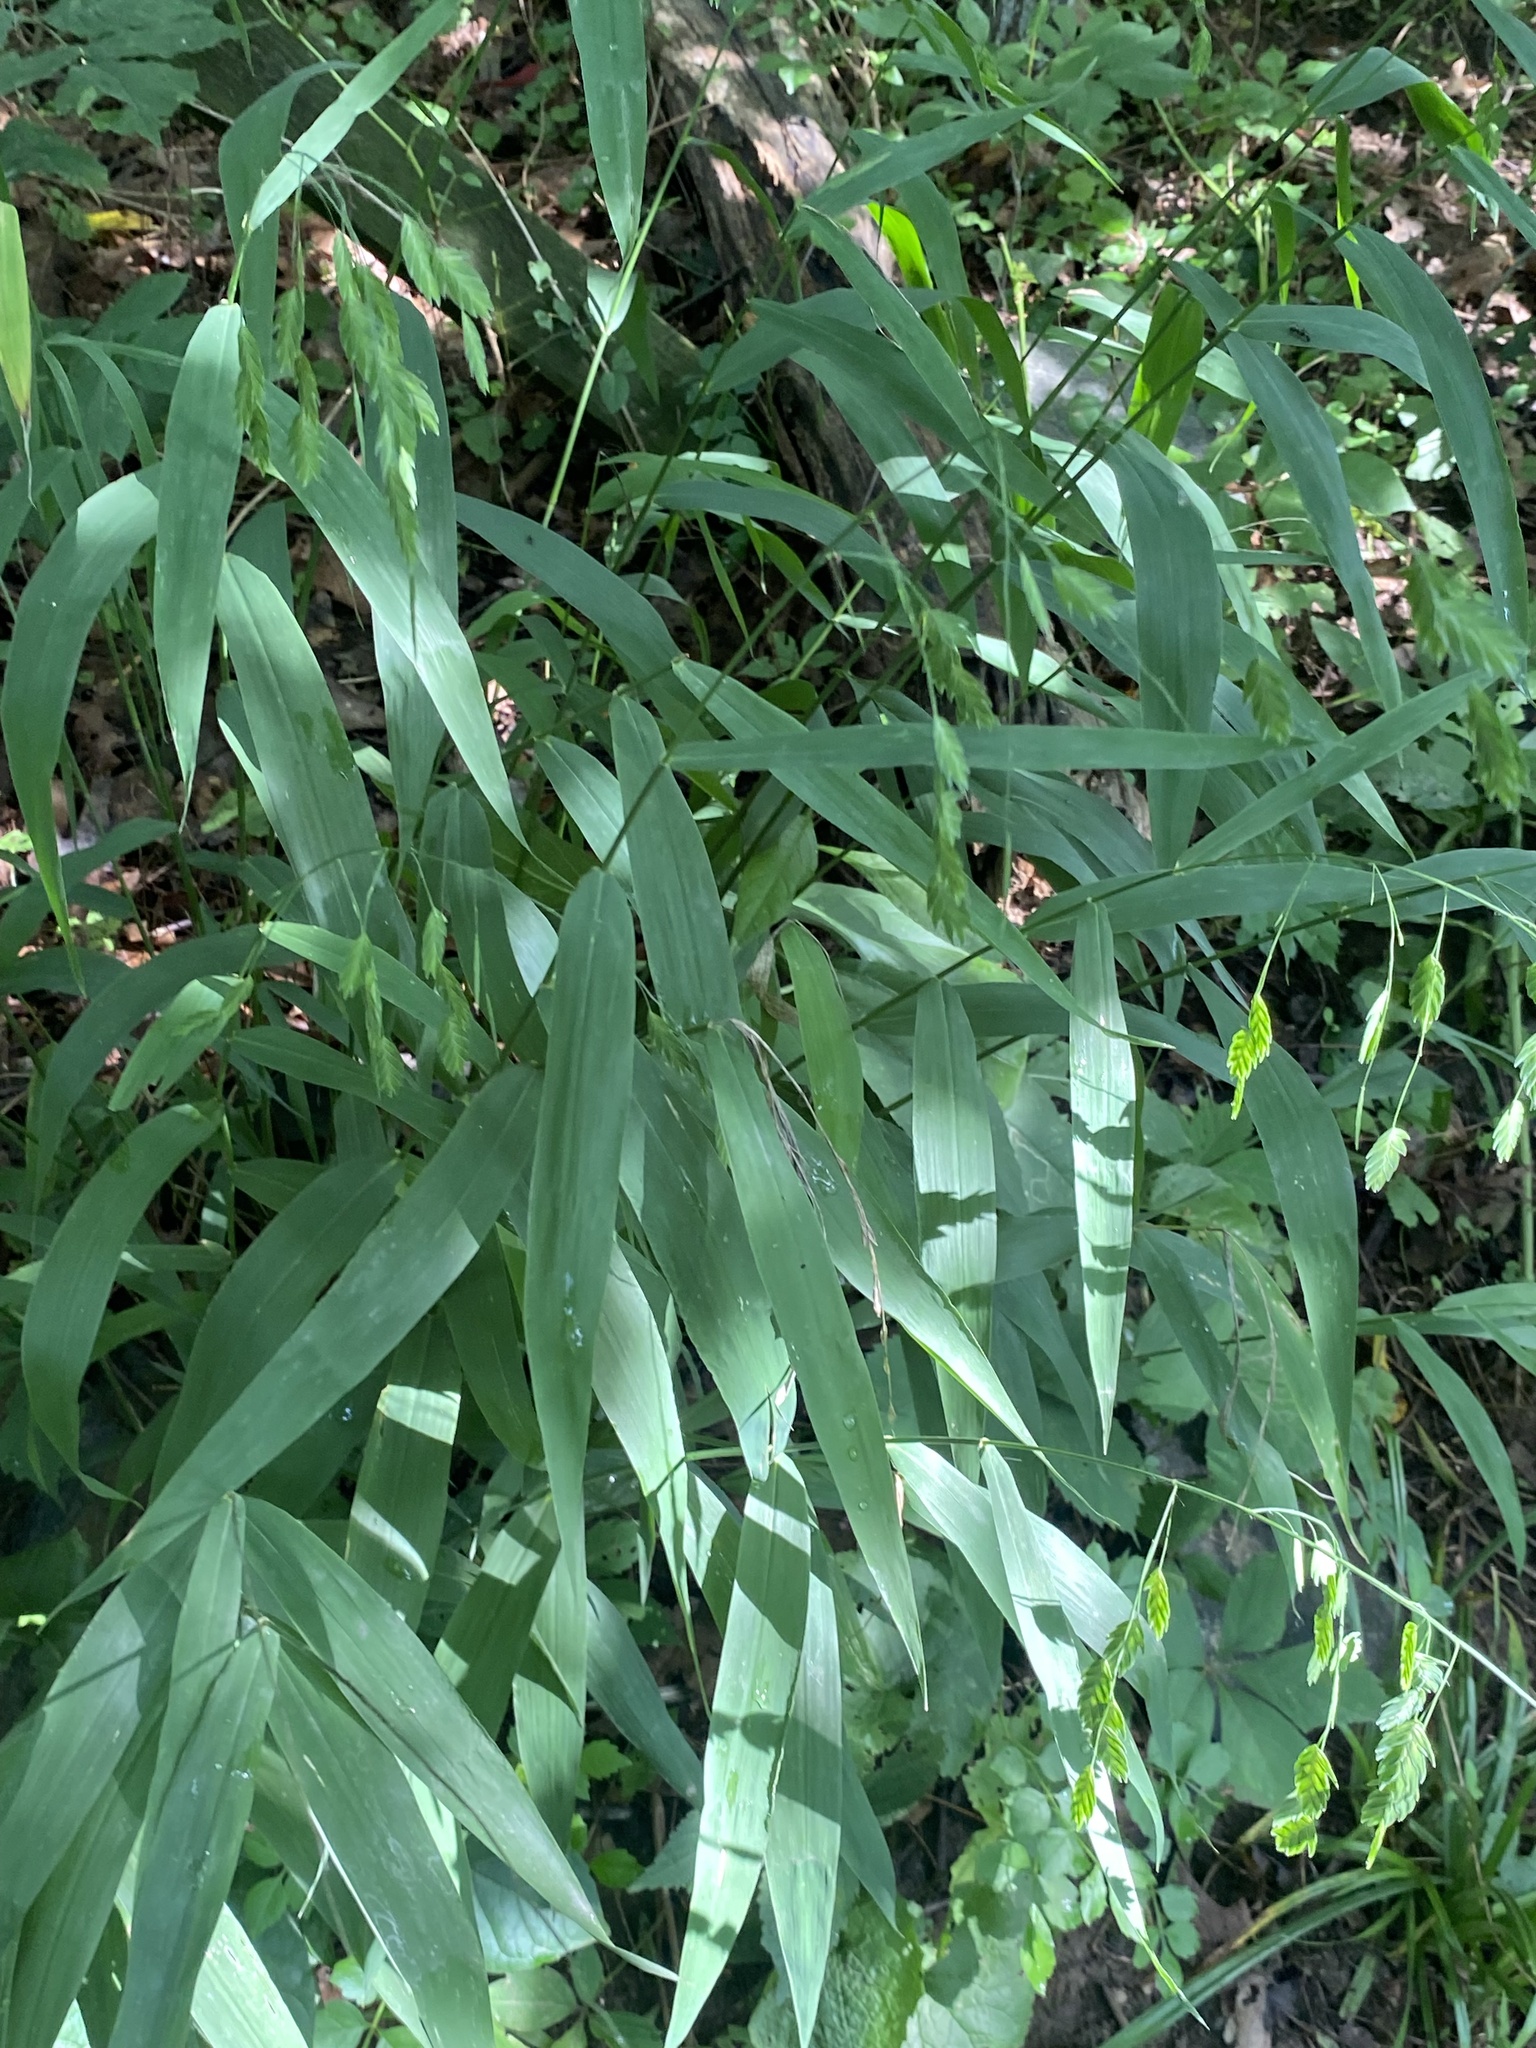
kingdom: Plantae
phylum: Tracheophyta
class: Liliopsida
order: Poales
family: Poaceae
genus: Chasmanthium
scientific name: Chasmanthium latifolium
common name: Broad-leaved chasmanthium
